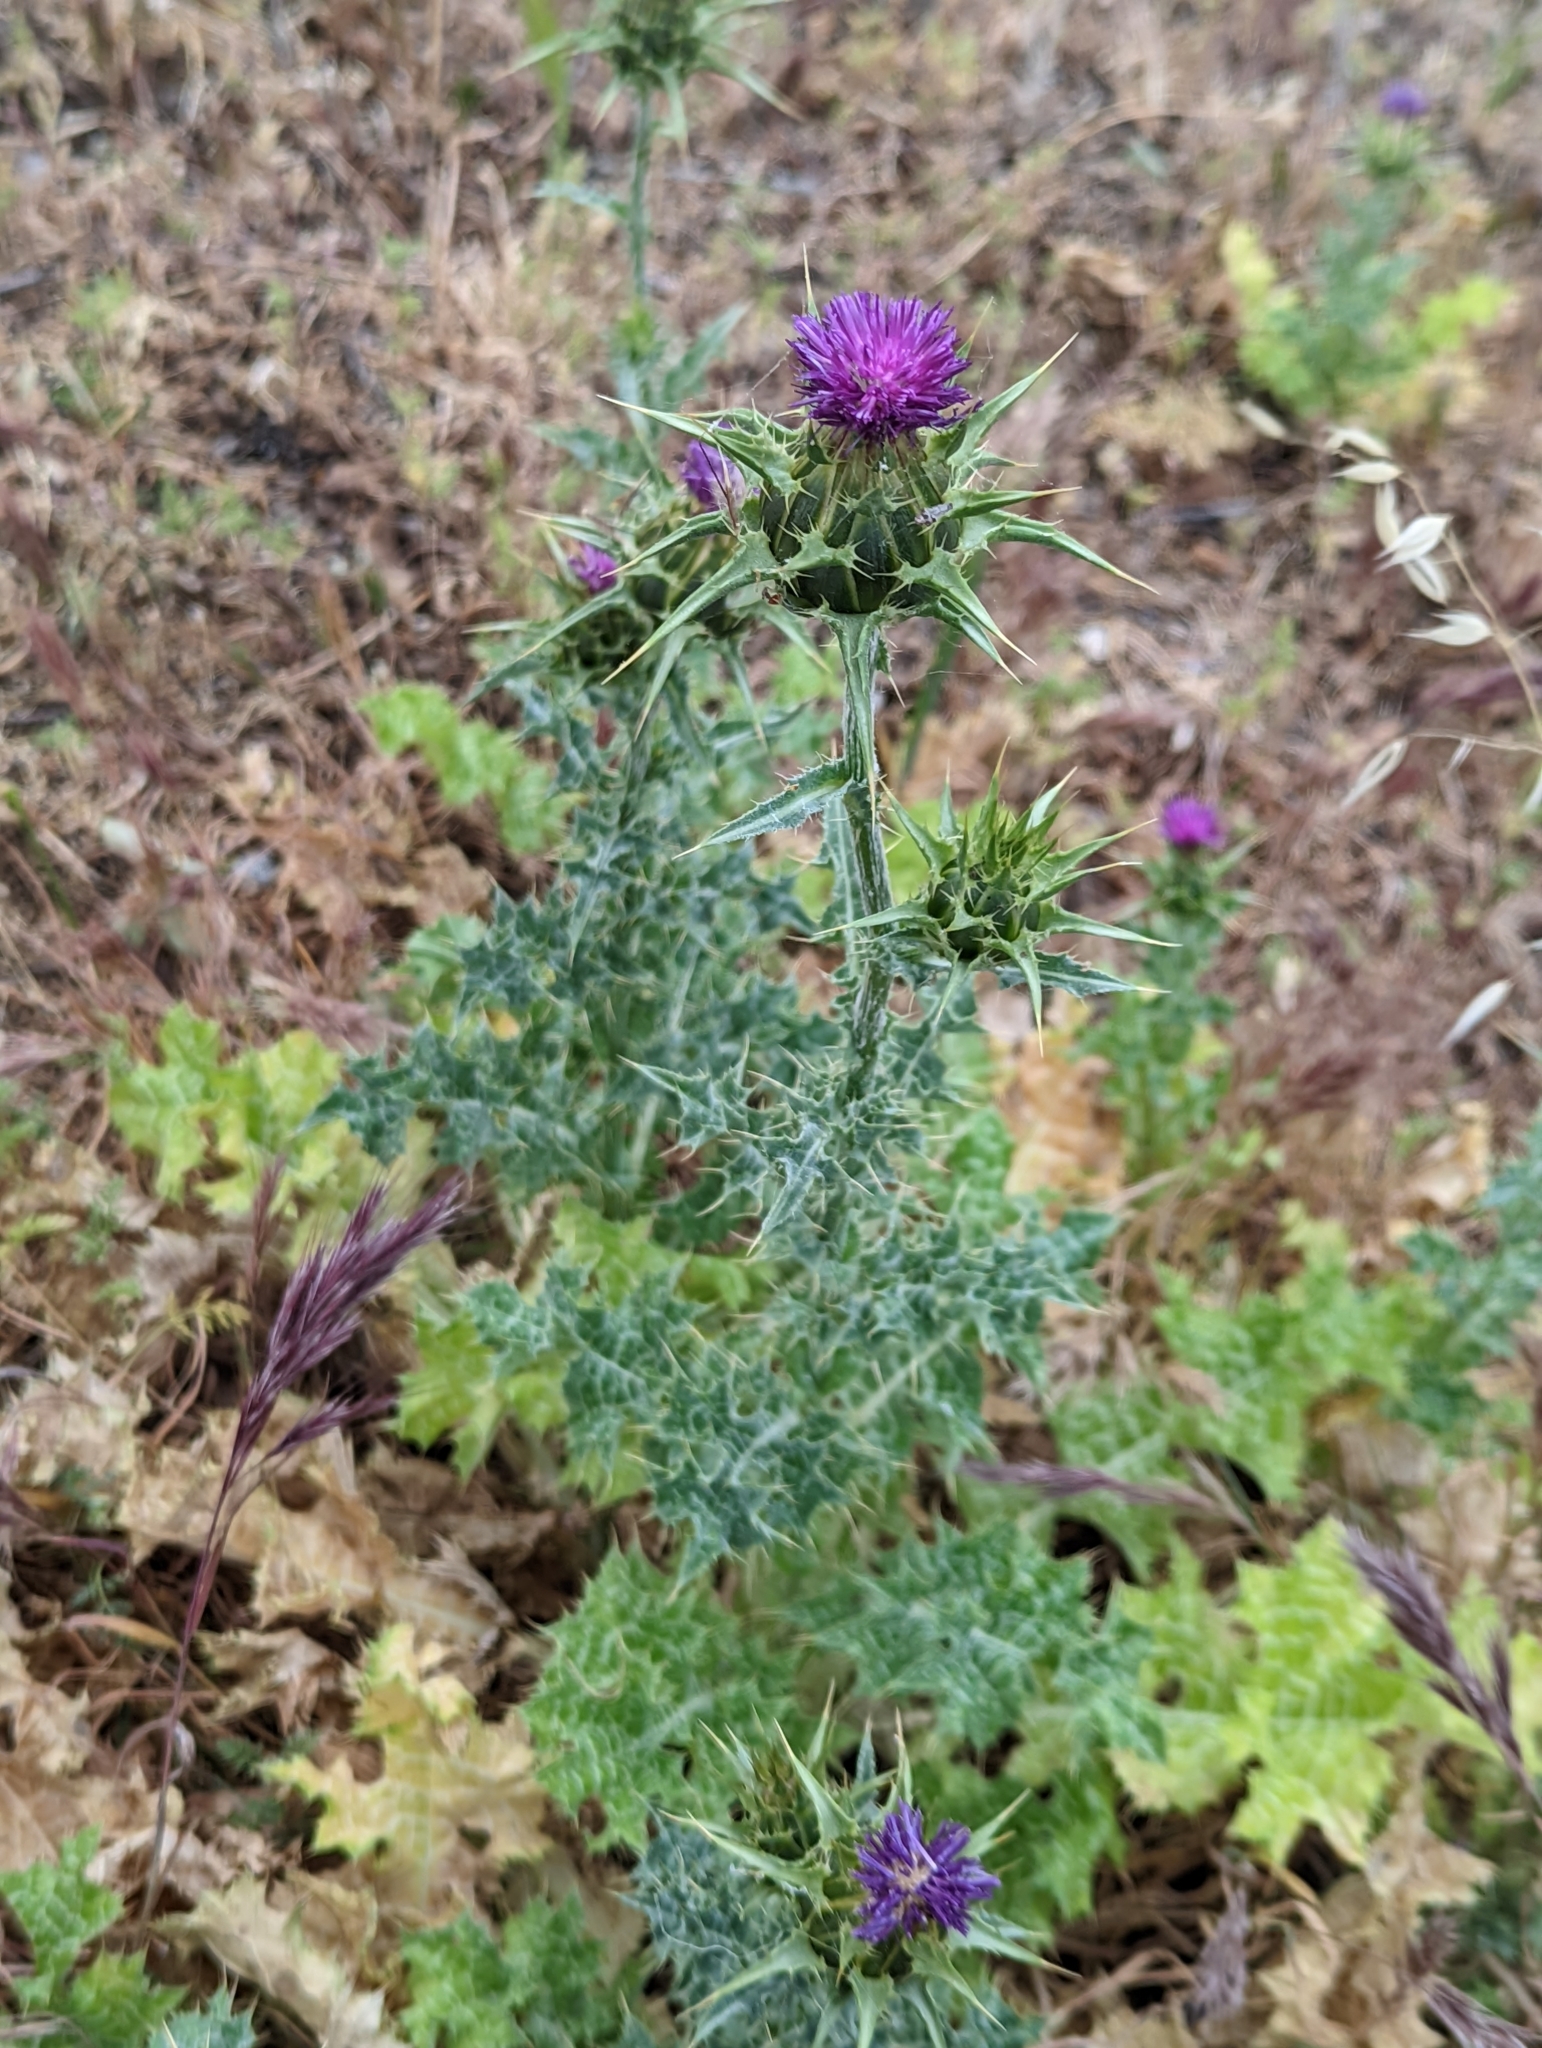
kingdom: Plantae
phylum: Tracheophyta
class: Magnoliopsida
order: Asterales
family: Asteraceae
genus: Silybum
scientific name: Silybum marianum
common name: Milk thistle
